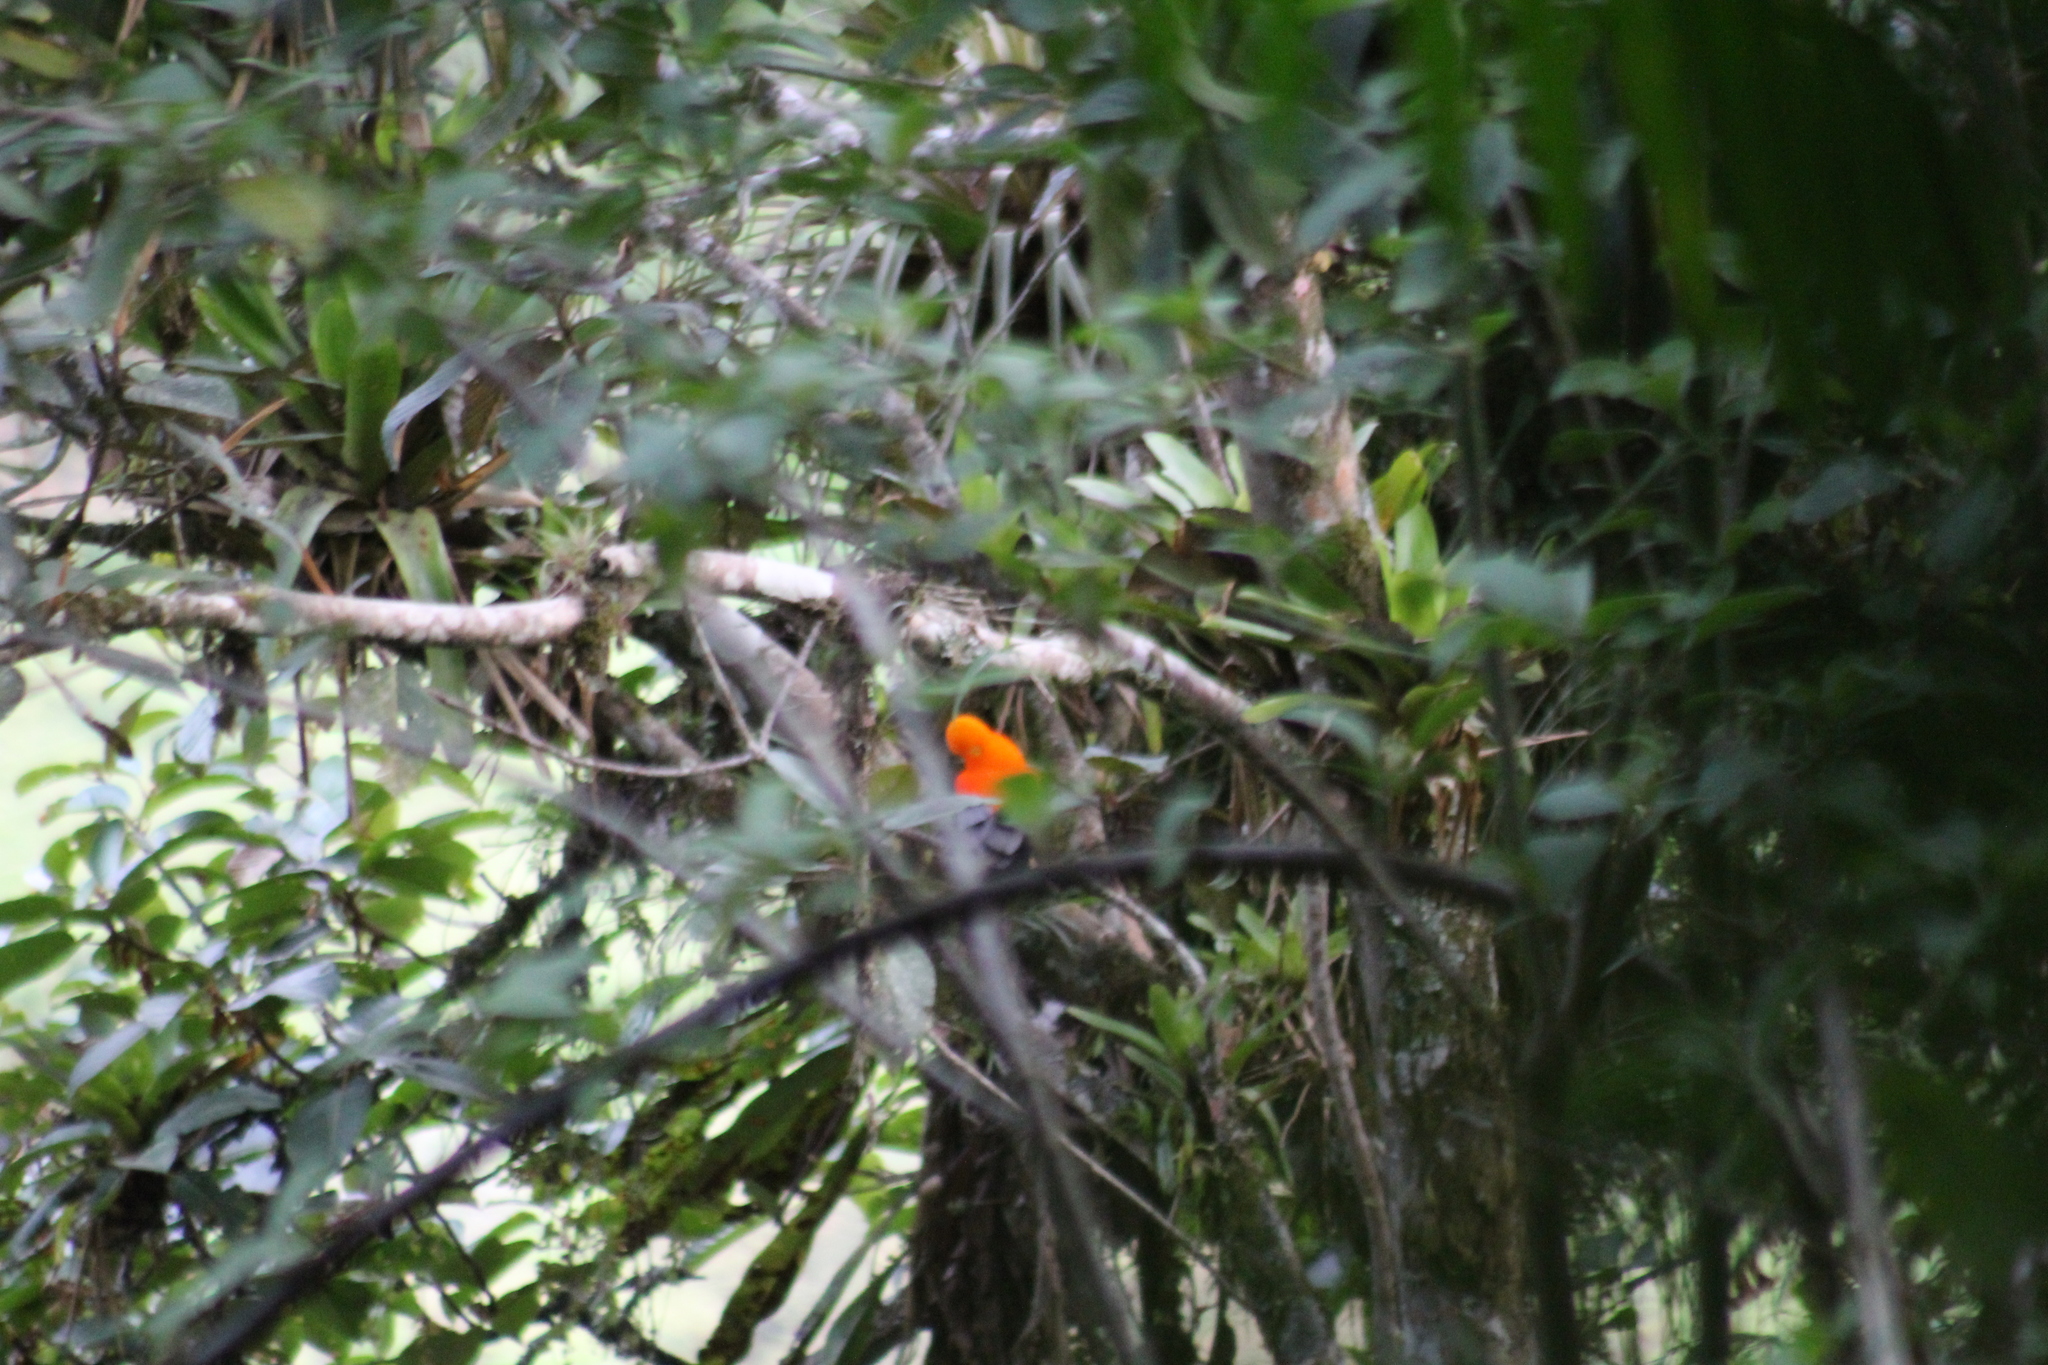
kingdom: Animalia
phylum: Chordata
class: Aves
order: Passeriformes
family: Cotingidae
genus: Rupicola
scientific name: Rupicola peruvianus
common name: Andean cock-of-the-rock
